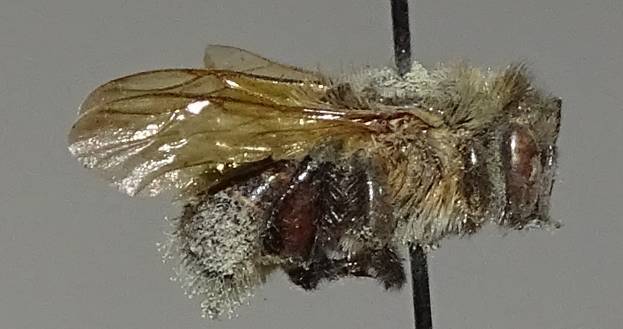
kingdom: Animalia
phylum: Arthropoda
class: Insecta
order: Hymenoptera
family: Apidae
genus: Melipona
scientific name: Melipona costaricensis
